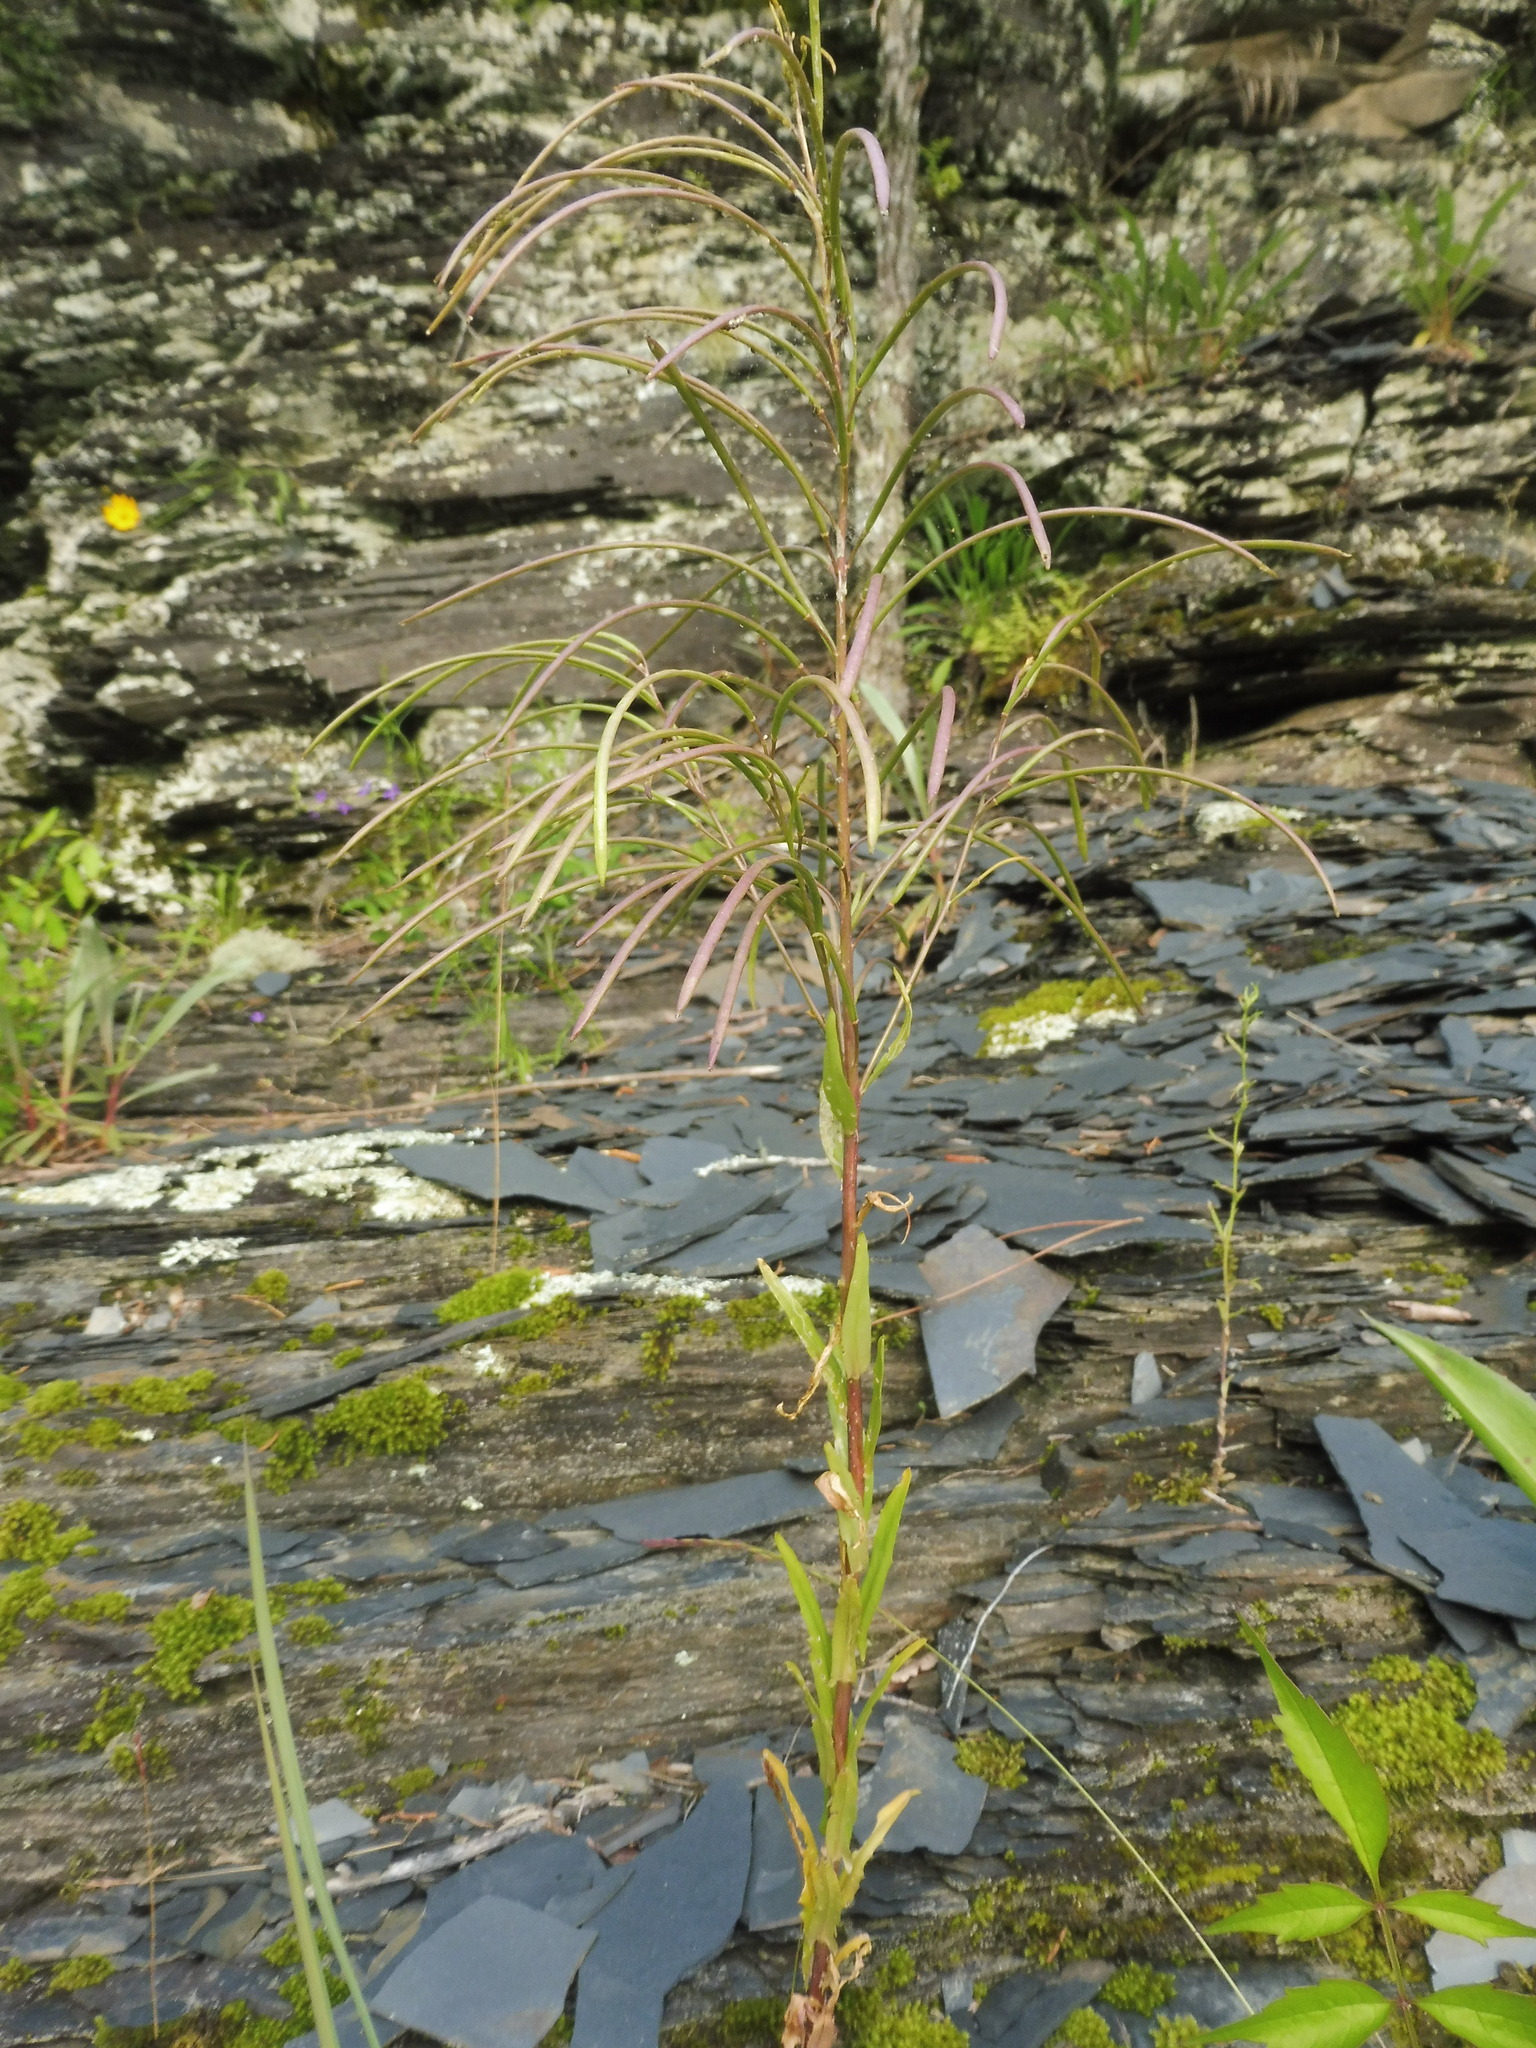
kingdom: Plantae
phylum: Tracheophyta
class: Magnoliopsida
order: Brassicales
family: Brassicaceae
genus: Borodinia
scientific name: Borodinia missouriensis
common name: Green rockcress
